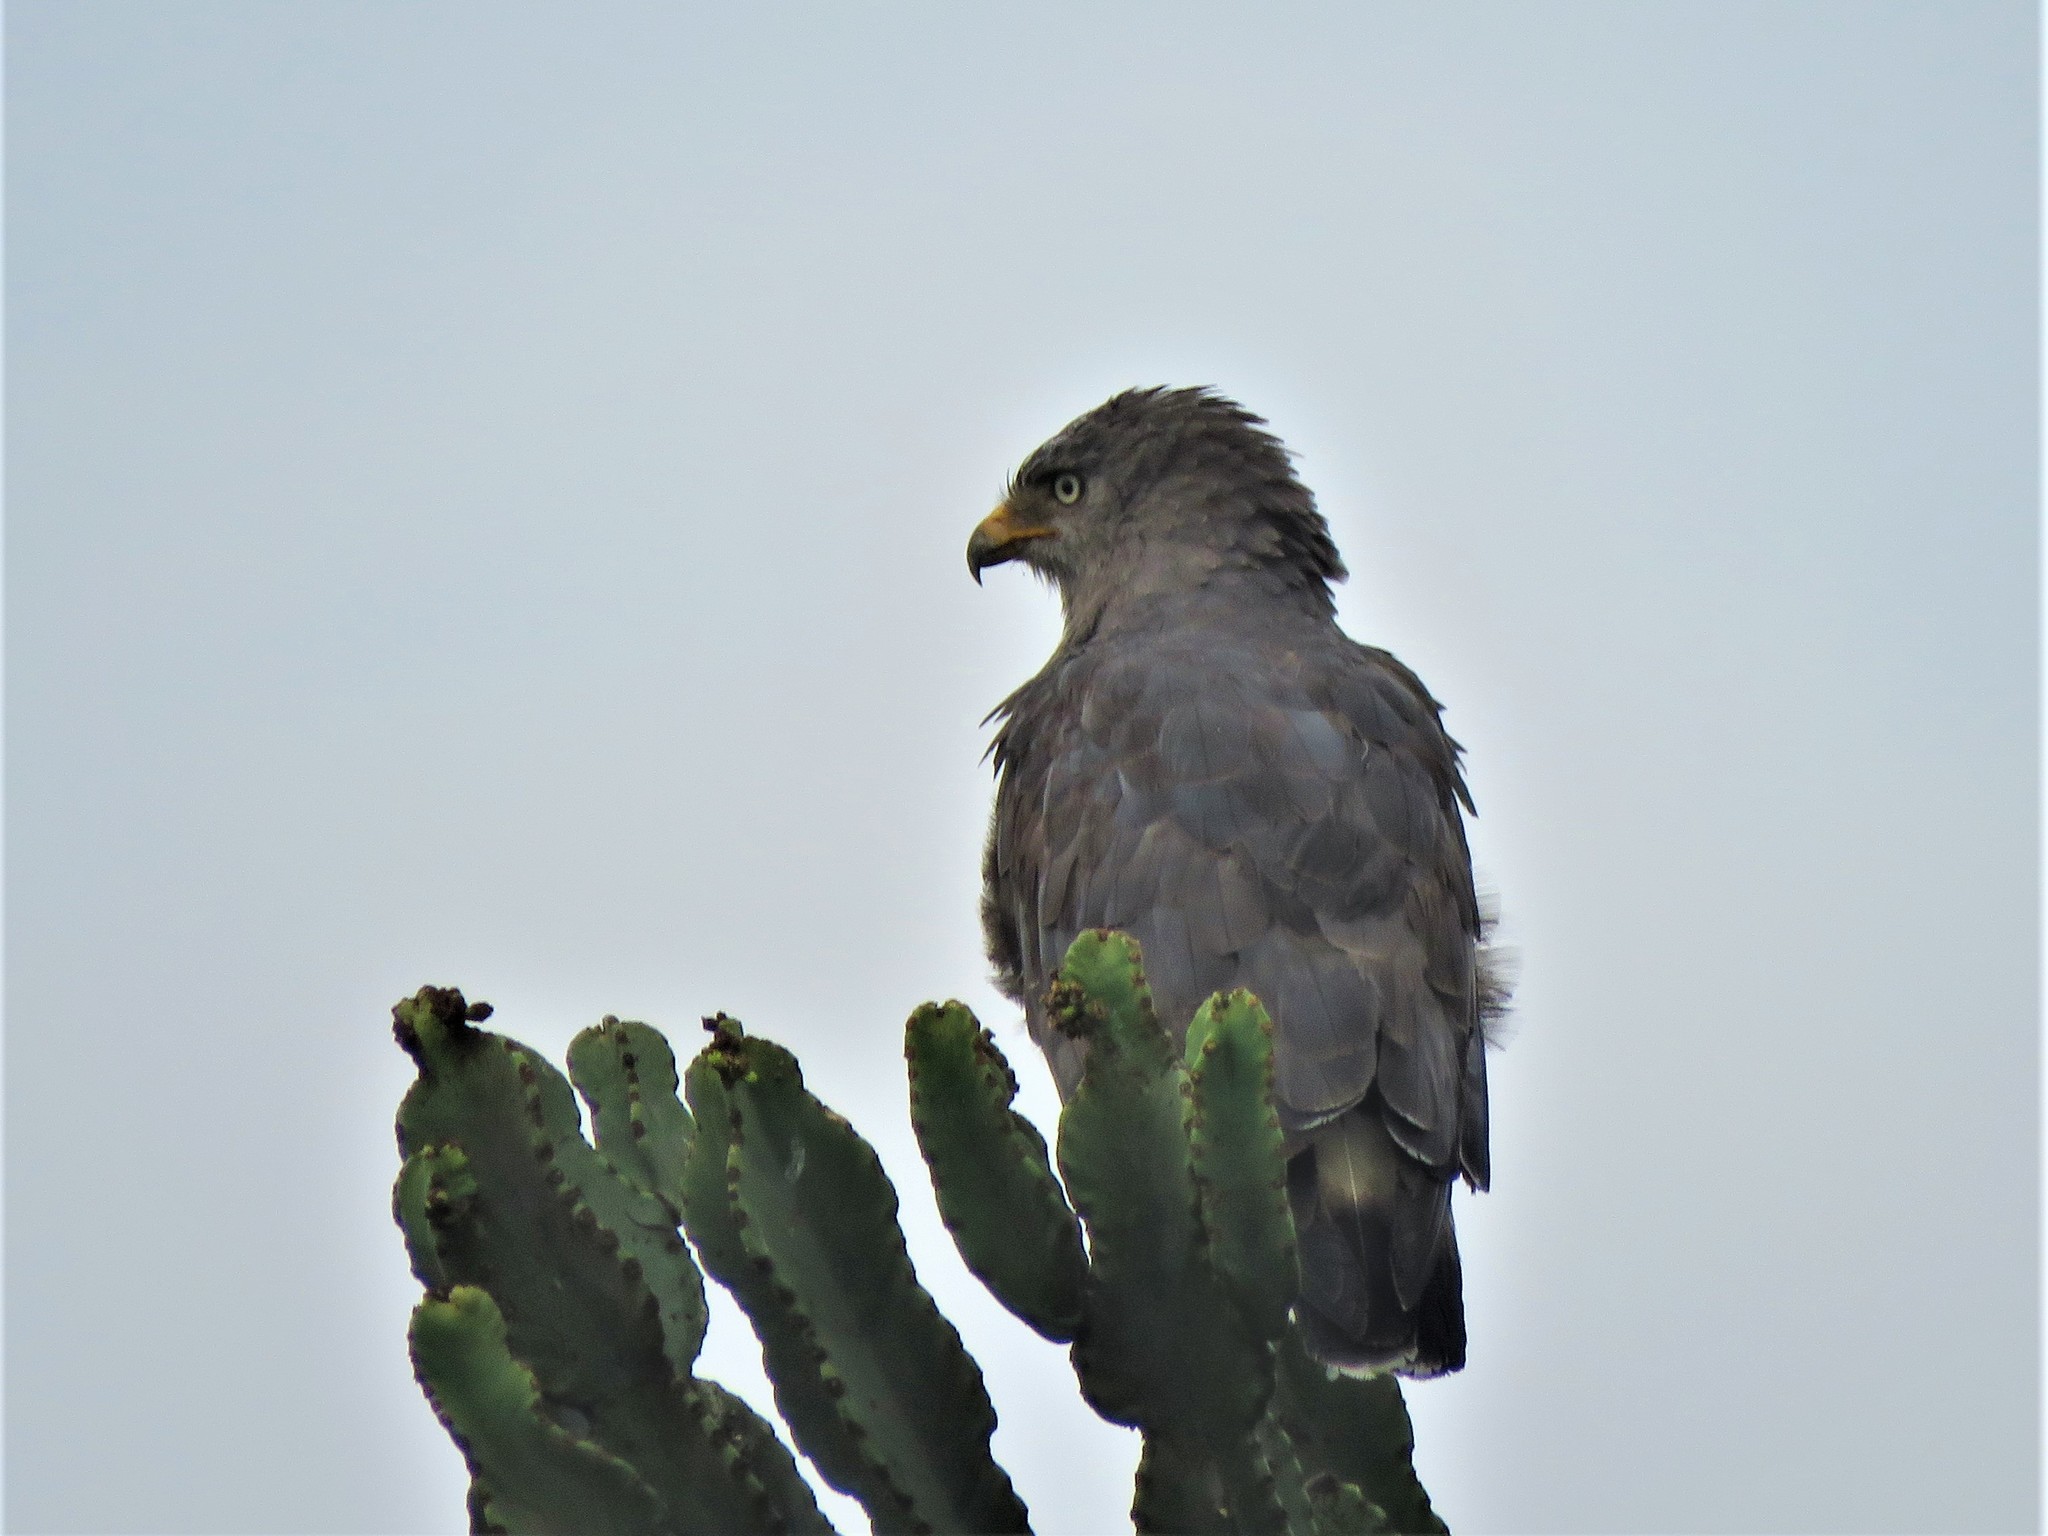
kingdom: Animalia
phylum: Chordata
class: Aves
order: Accipitriformes
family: Accipitridae
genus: Circaetus
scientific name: Circaetus cinerascens
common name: Western banded snake eagle
